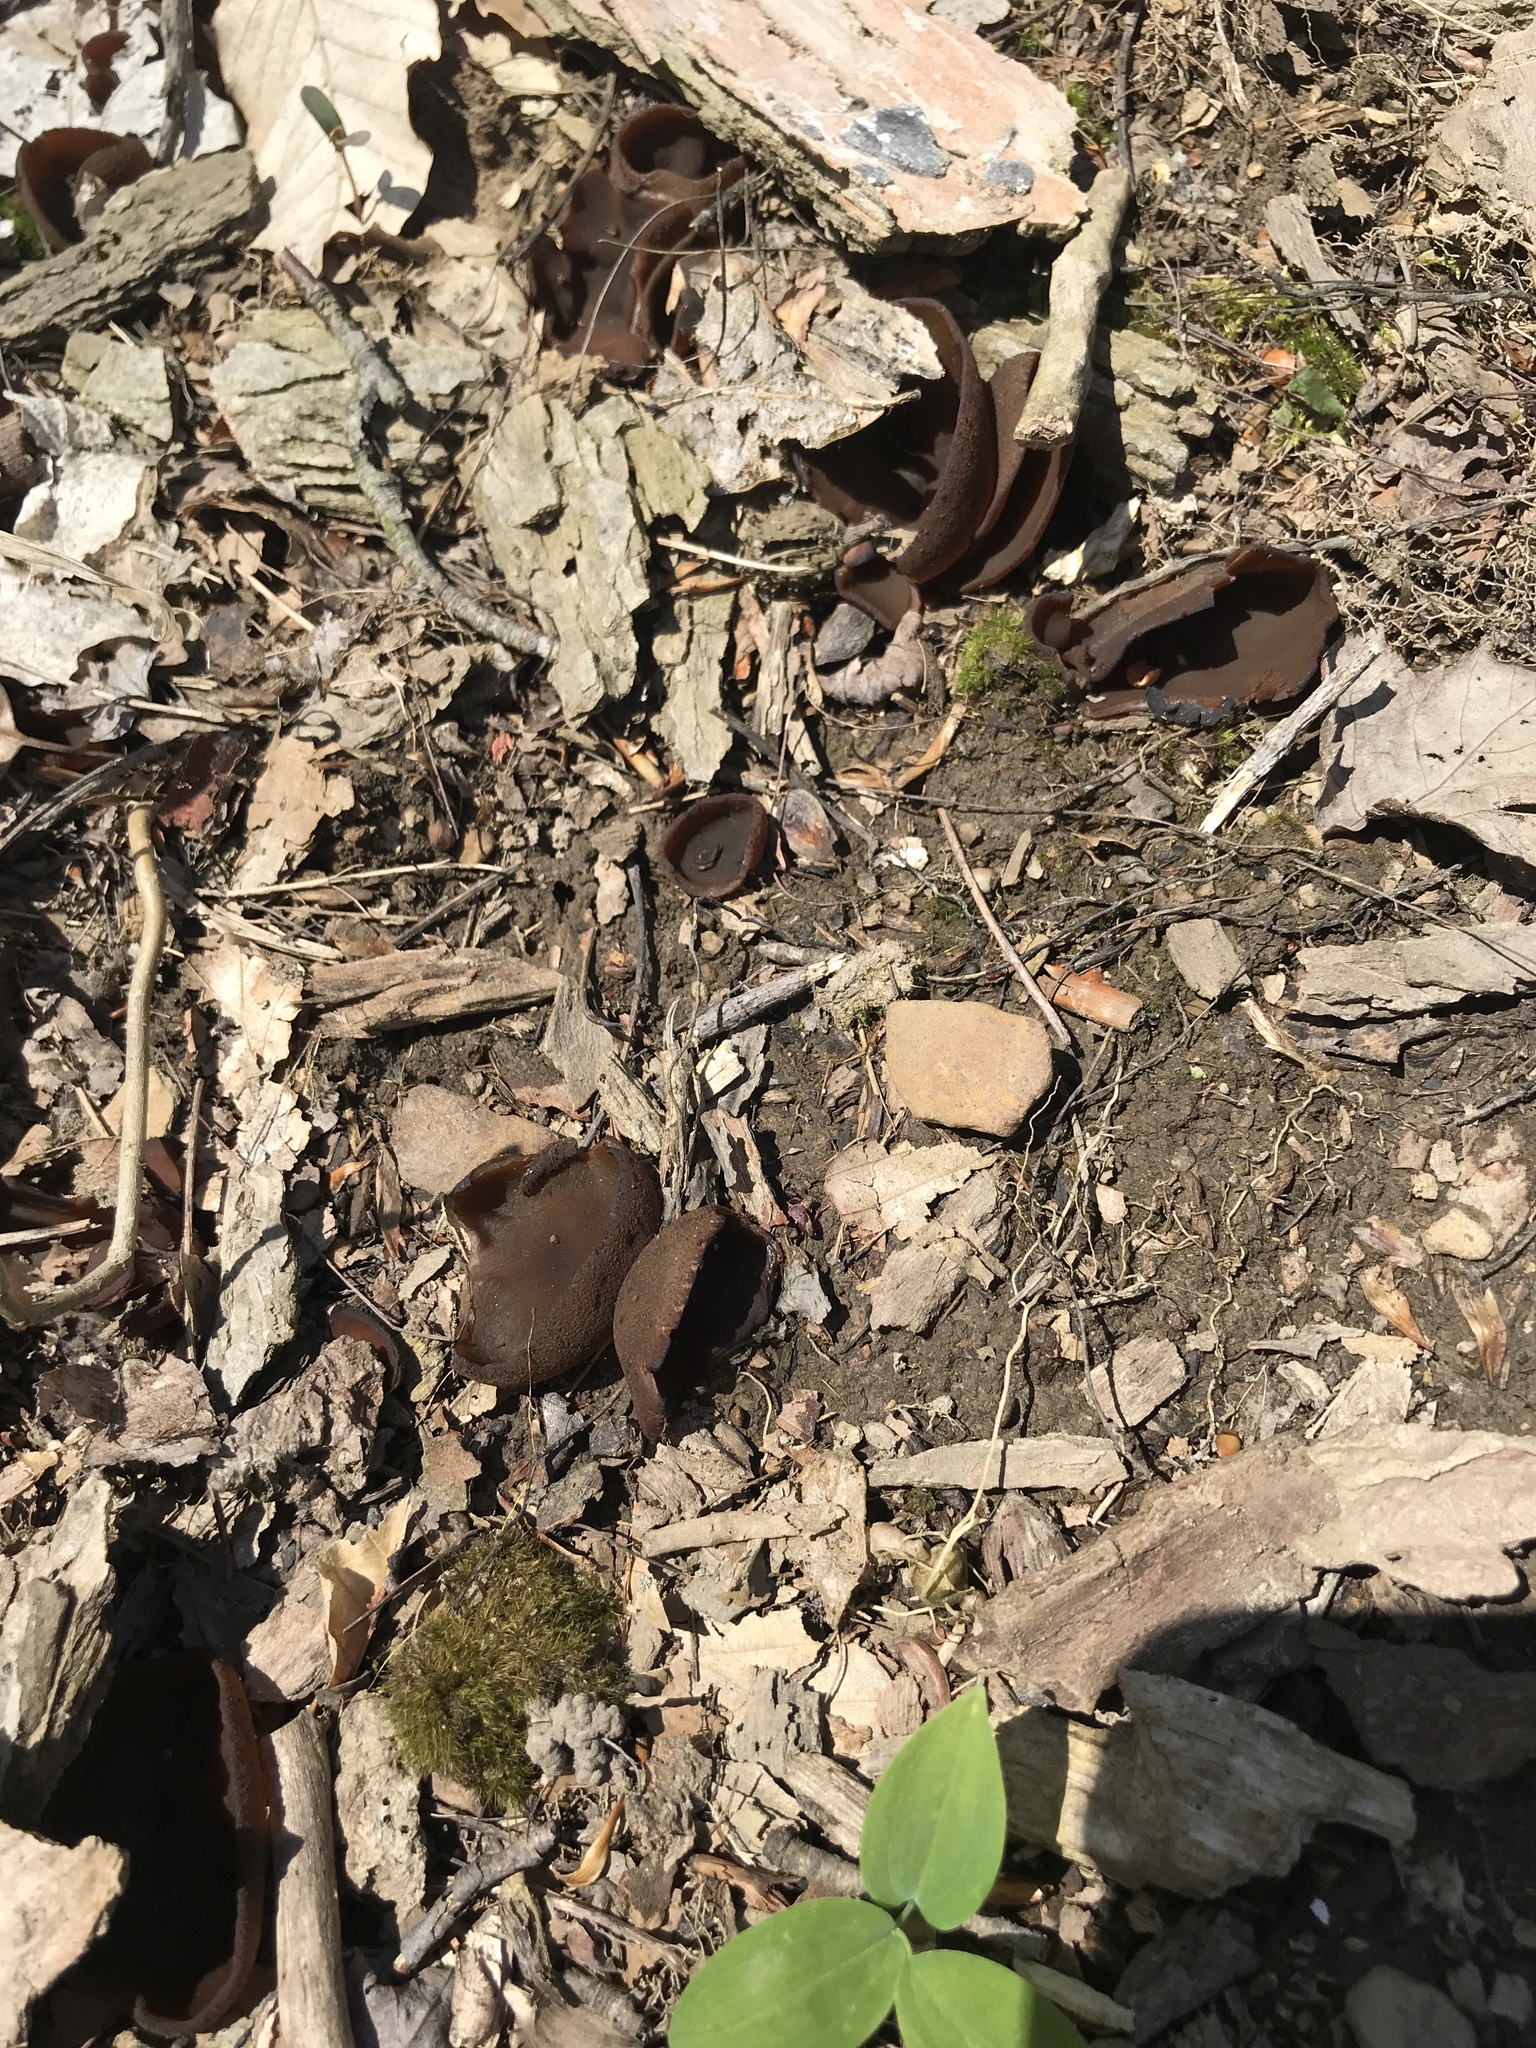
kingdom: Fungi
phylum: Ascomycota
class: Pezizomycetes
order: Pezizales
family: Pezizaceae
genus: Phylloscypha
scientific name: Phylloscypha phyllogena
